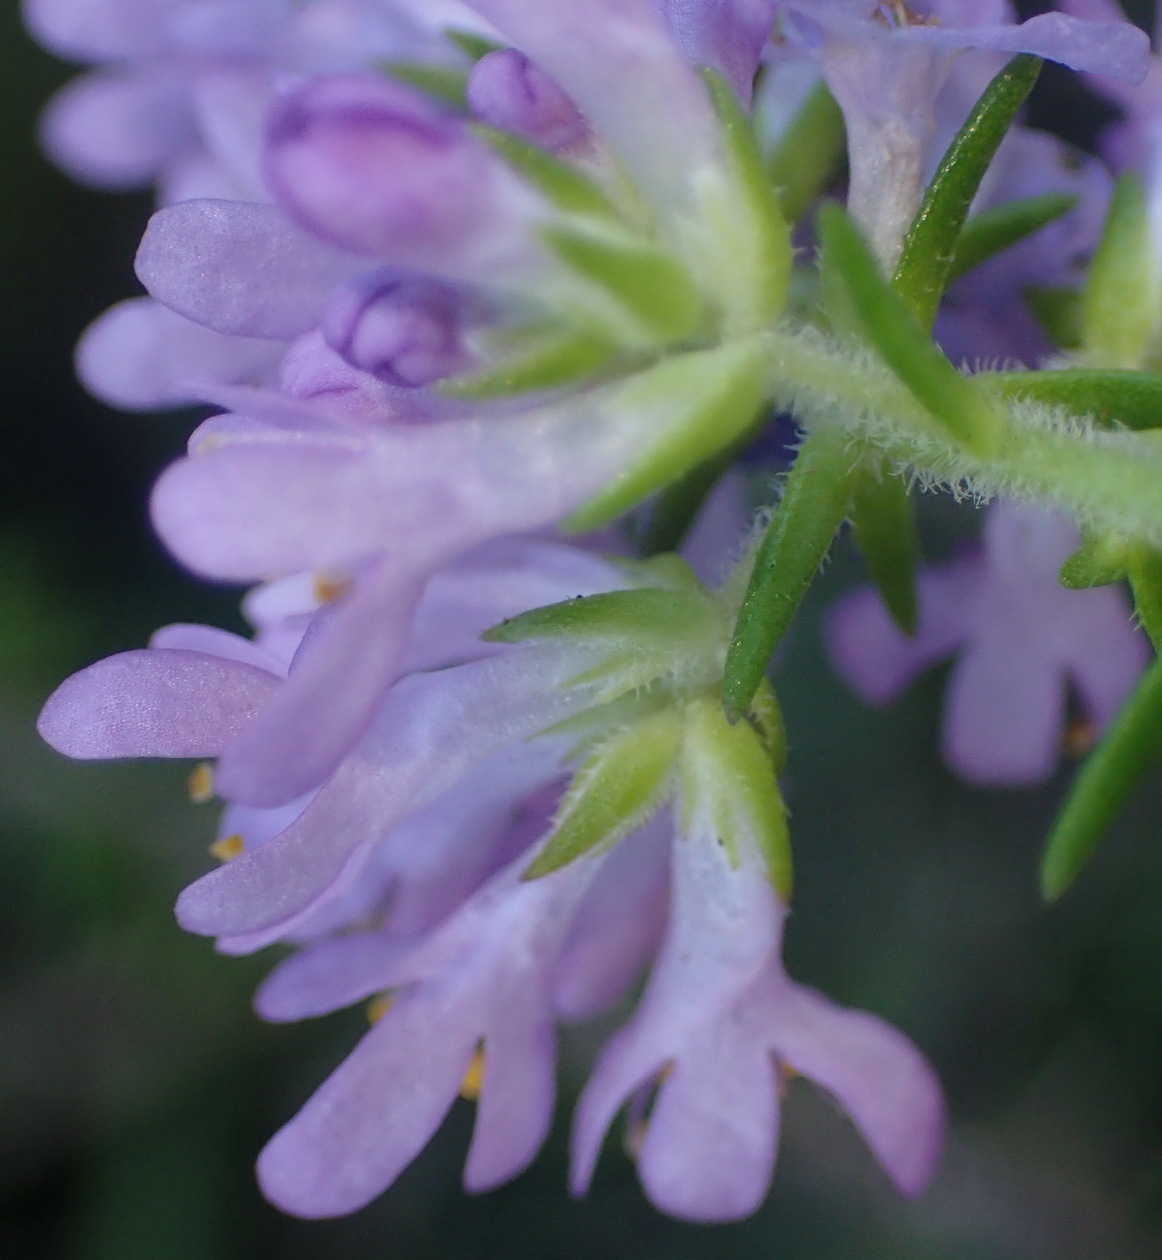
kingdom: Plantae
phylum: Tracheophyta
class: Magnoliopsida
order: Lamiales
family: Scrophulariaceae
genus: Selago
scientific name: Selago villicaulis
